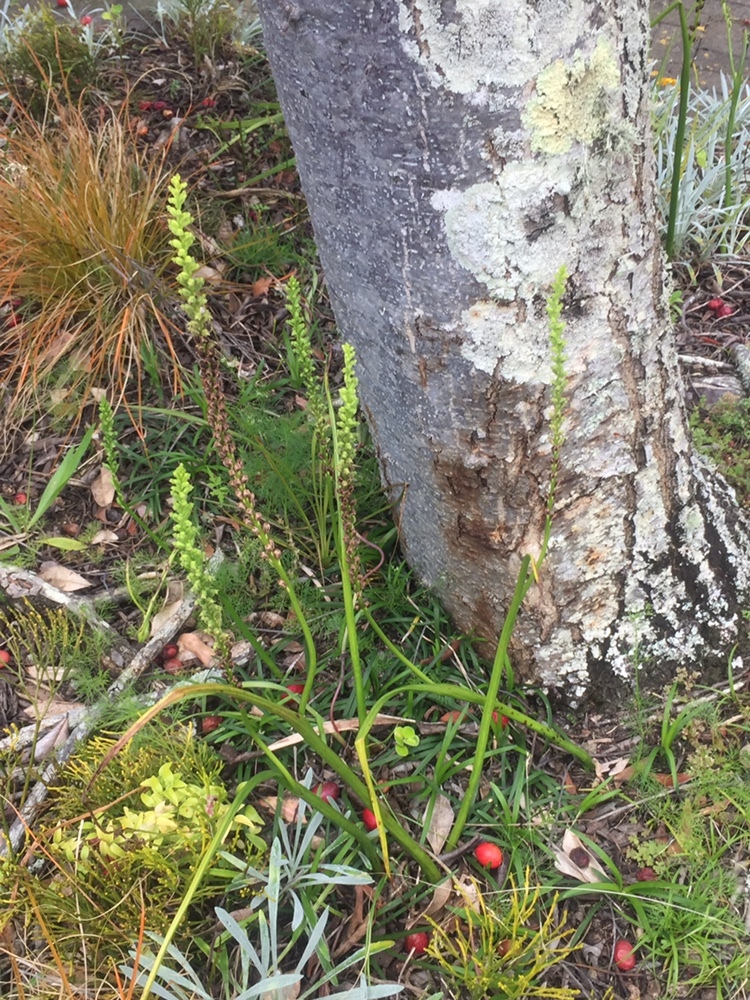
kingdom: Plantae
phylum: Tracheophyta
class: Liliopsida
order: Asparagales
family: Orchidaceae
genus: Microtis
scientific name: Microtis unifolia
